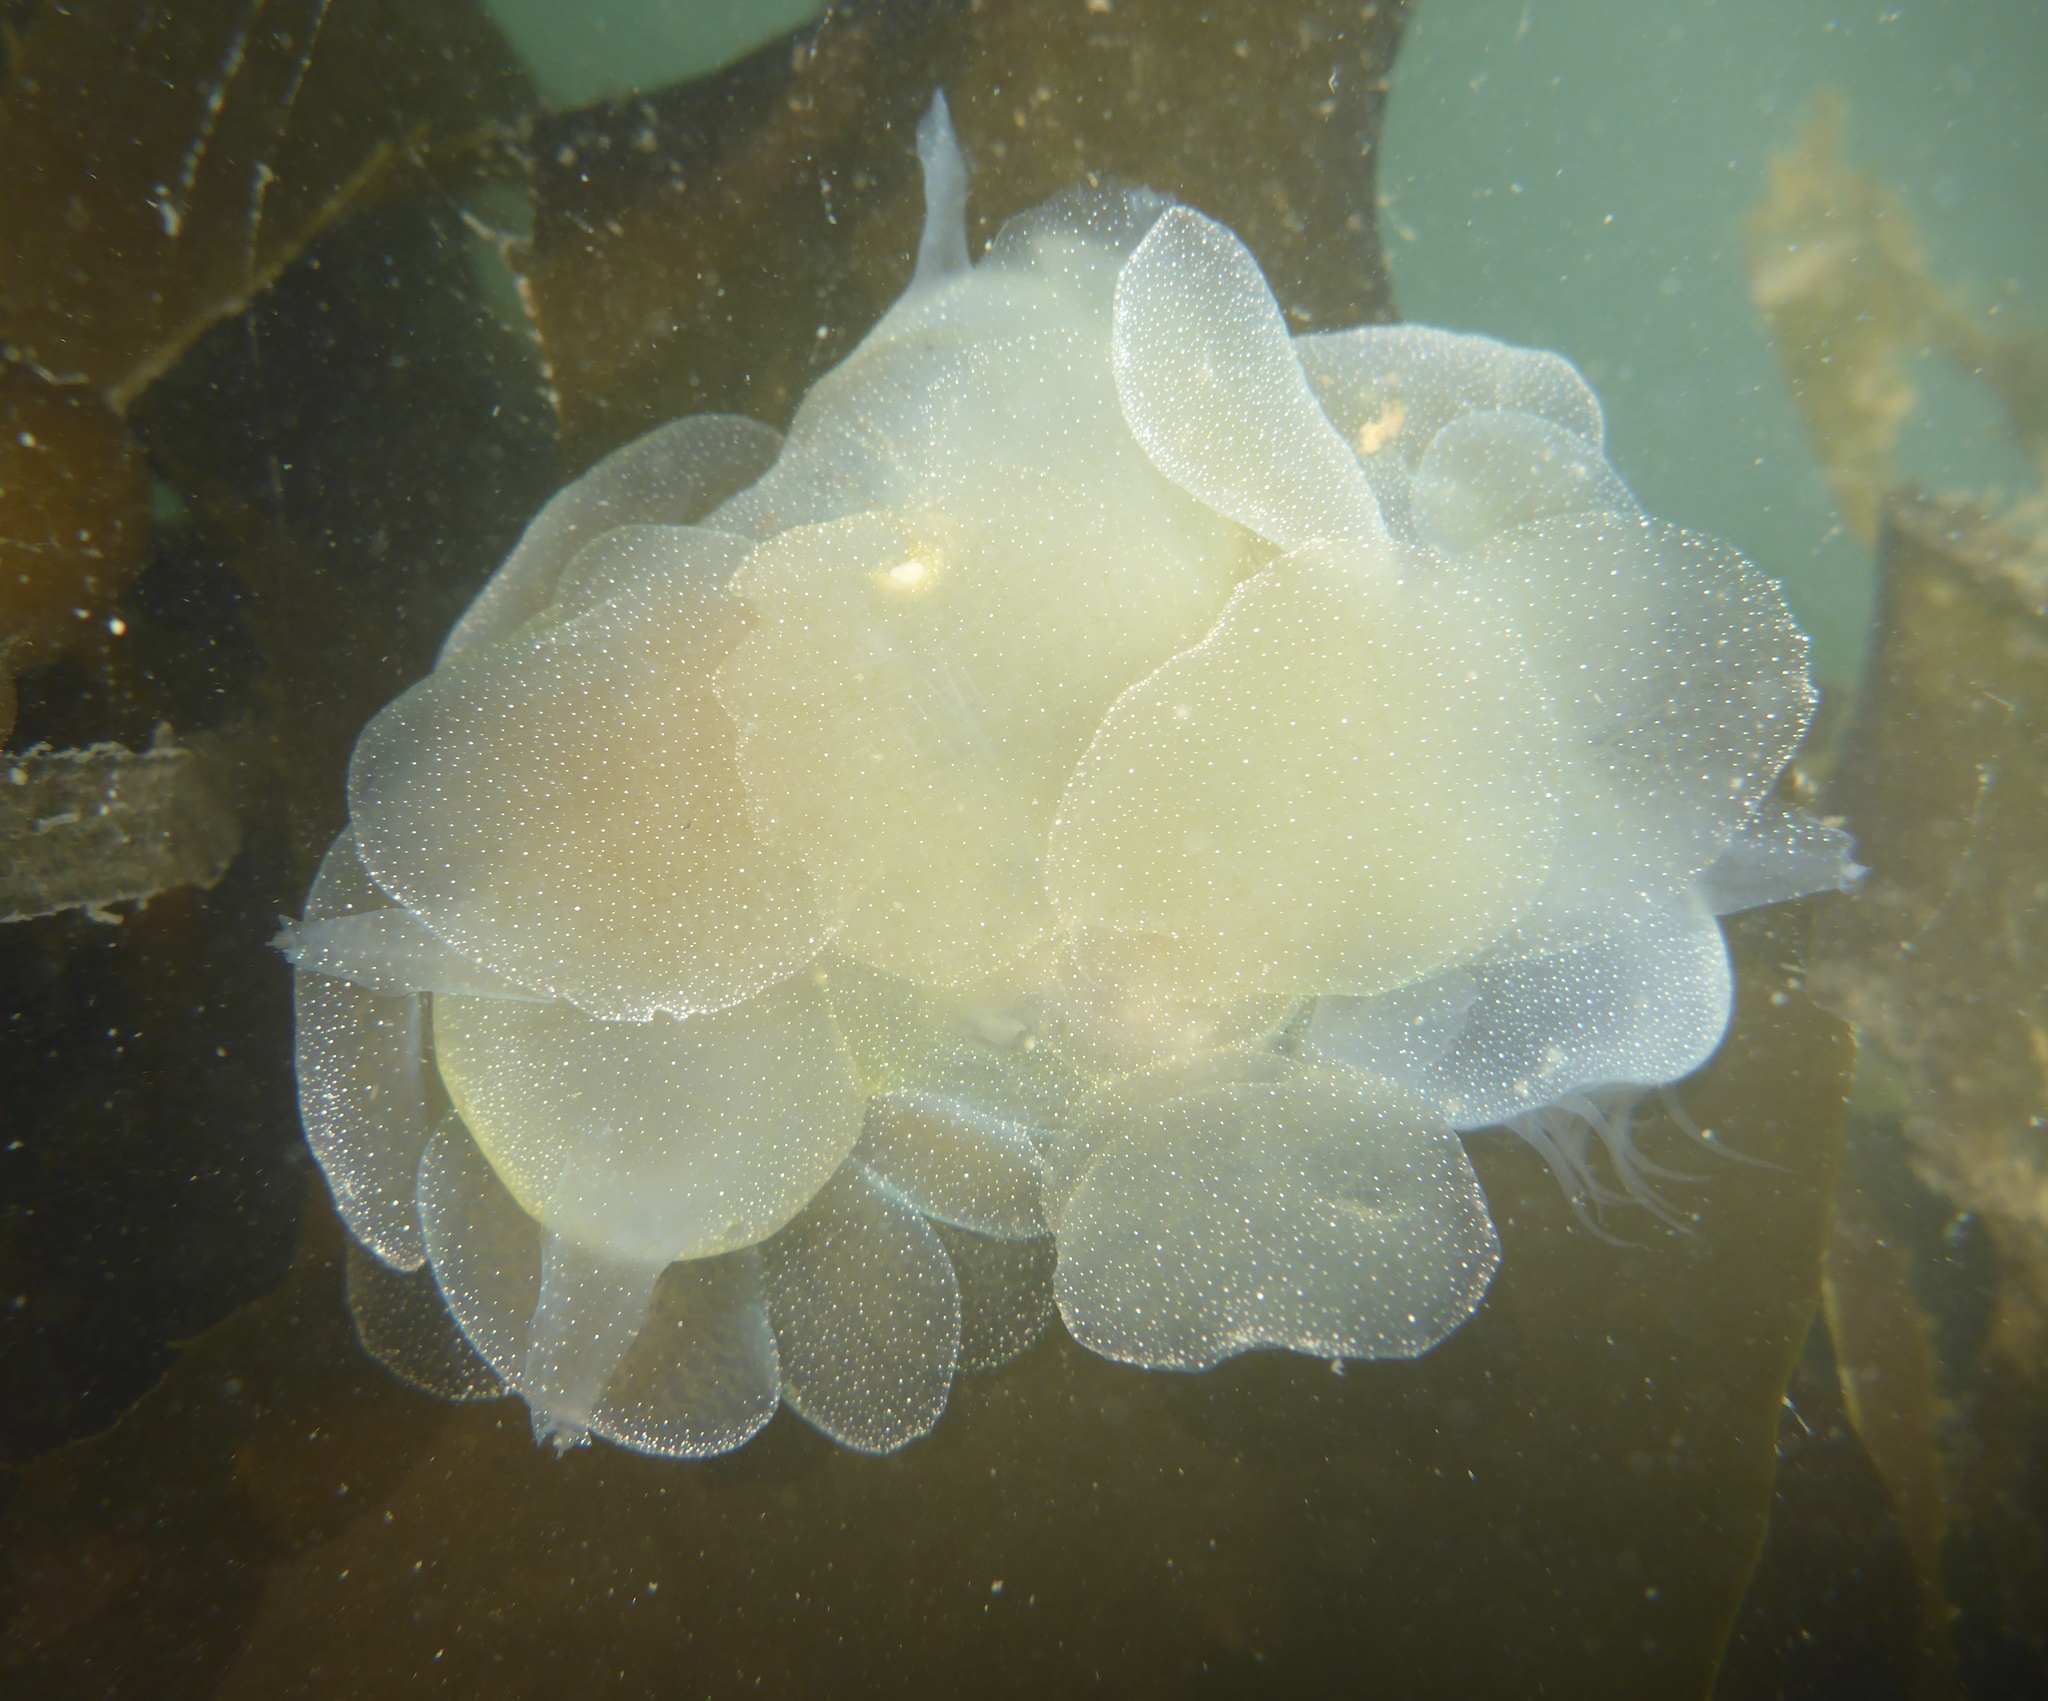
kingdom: Animalia
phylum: Mollusca
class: Gastropoda
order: Nudibranchia
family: Tethydidae
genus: Melibe
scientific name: Melibe leonina
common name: Lion nudibranch
